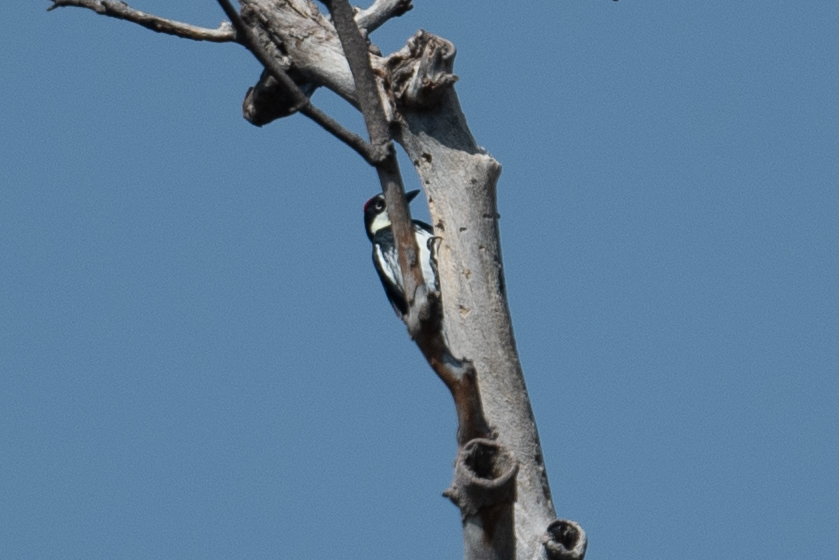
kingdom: Animalia
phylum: Chordata
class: Aves
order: Piciformes
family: Picidae
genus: Melanerpes
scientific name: Melanerpes formicivorus
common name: Acorn woodpecker
